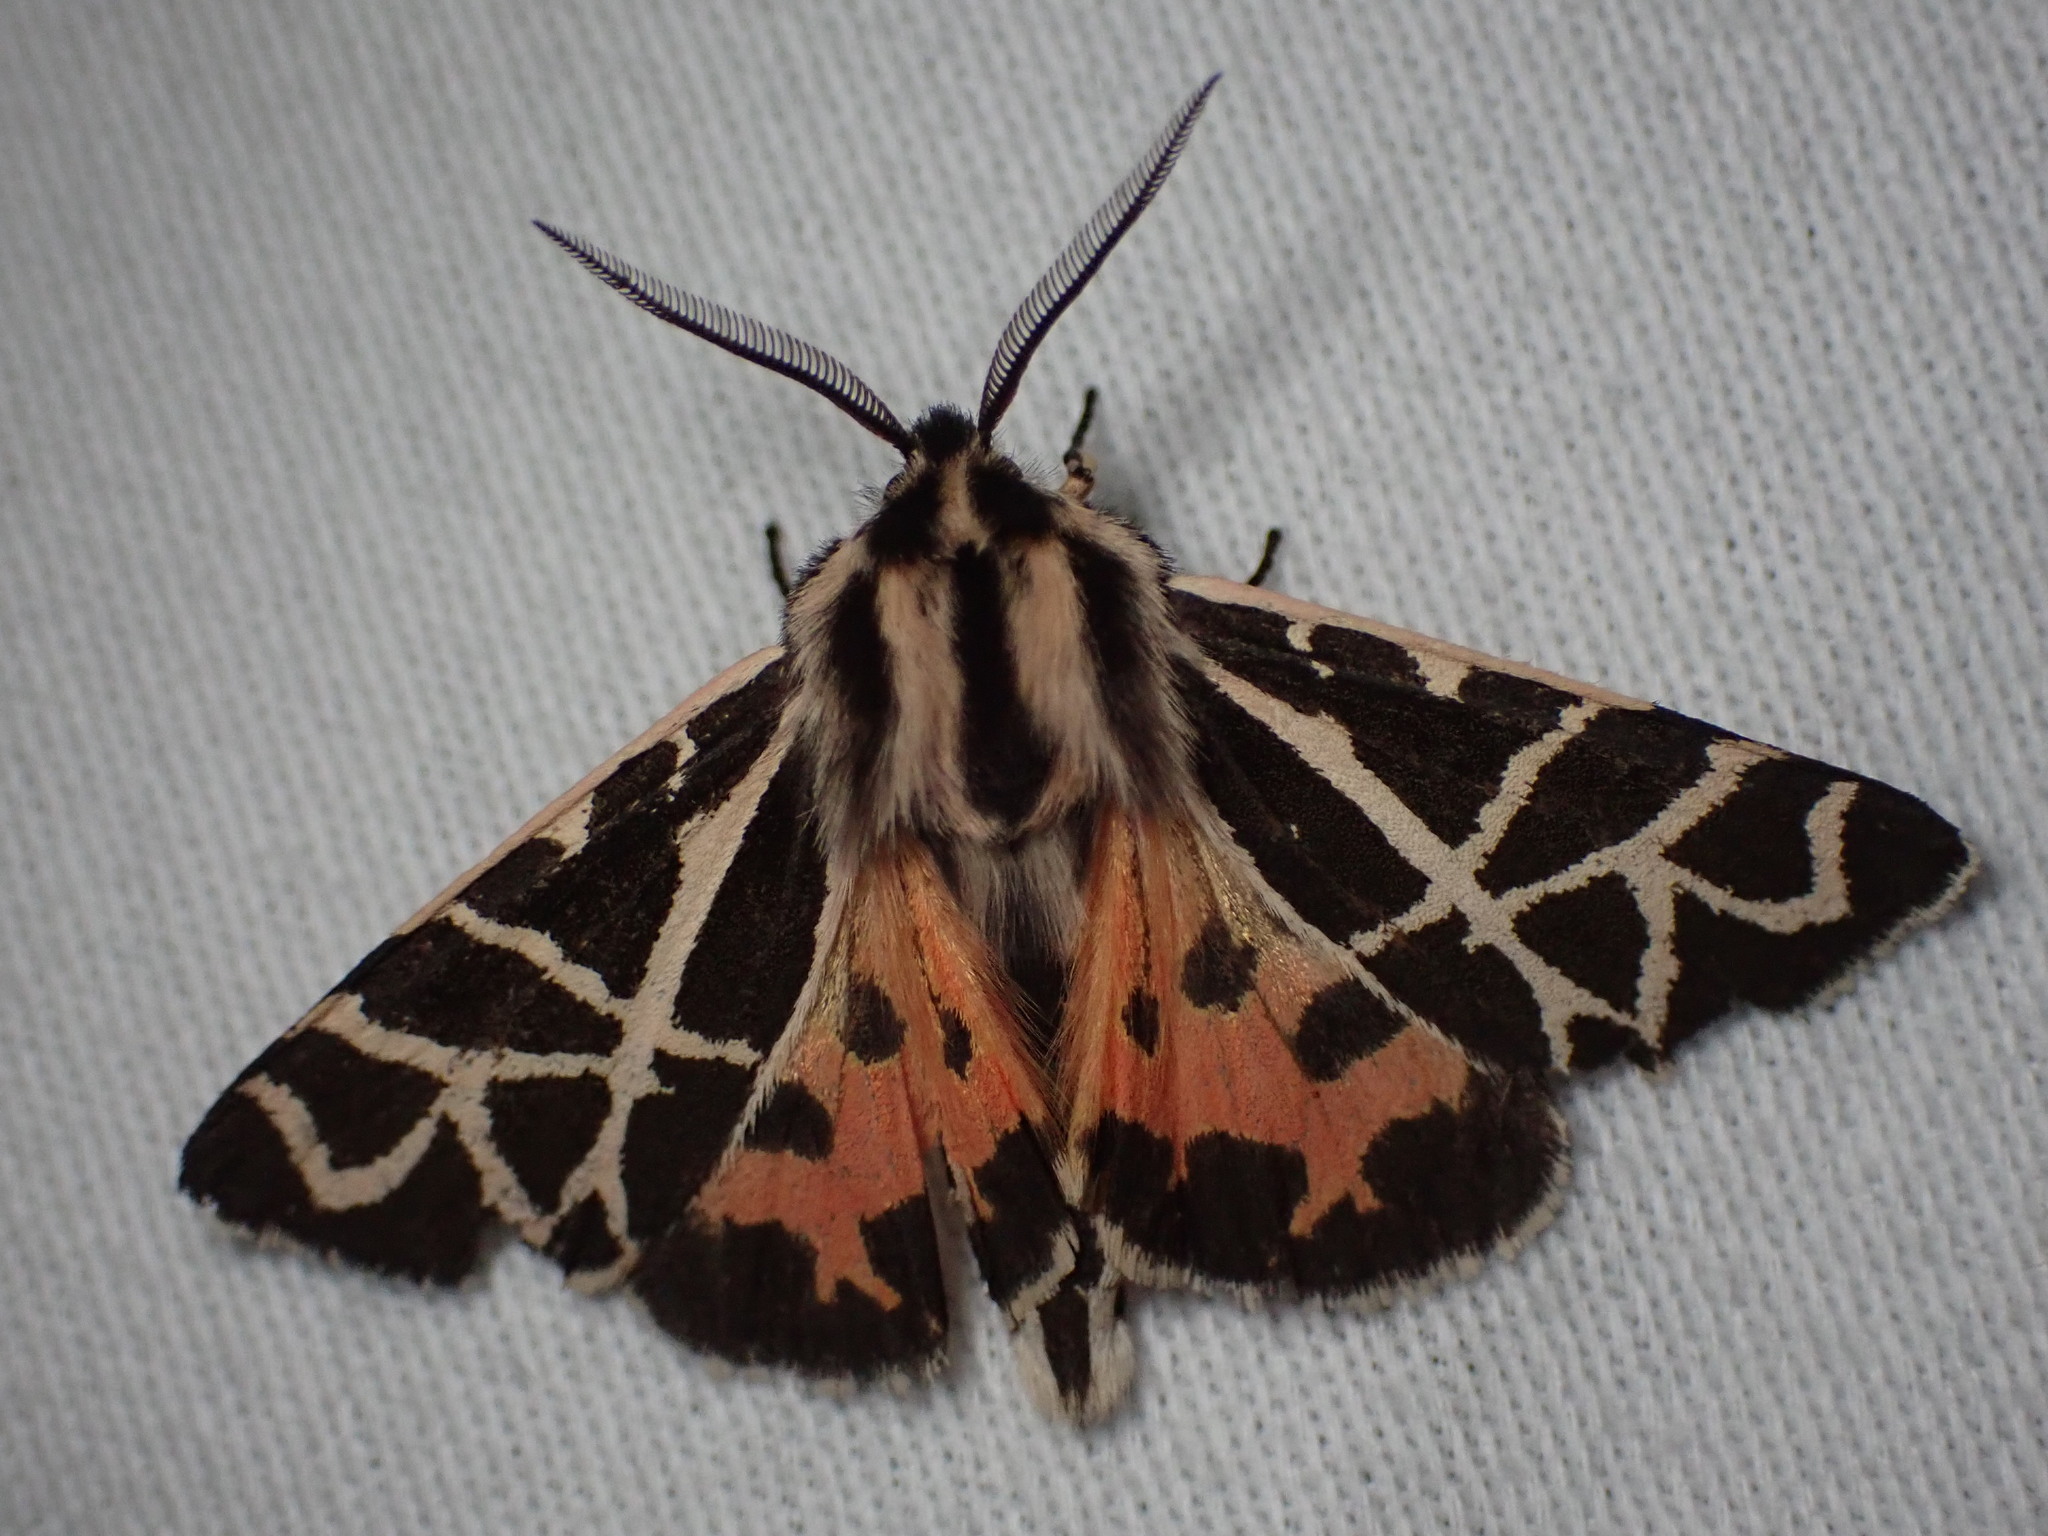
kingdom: Animalia
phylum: Arthropoda
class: Insecta
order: Lepidoptera
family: Erebidae
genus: Apantesis
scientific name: Apantesis
